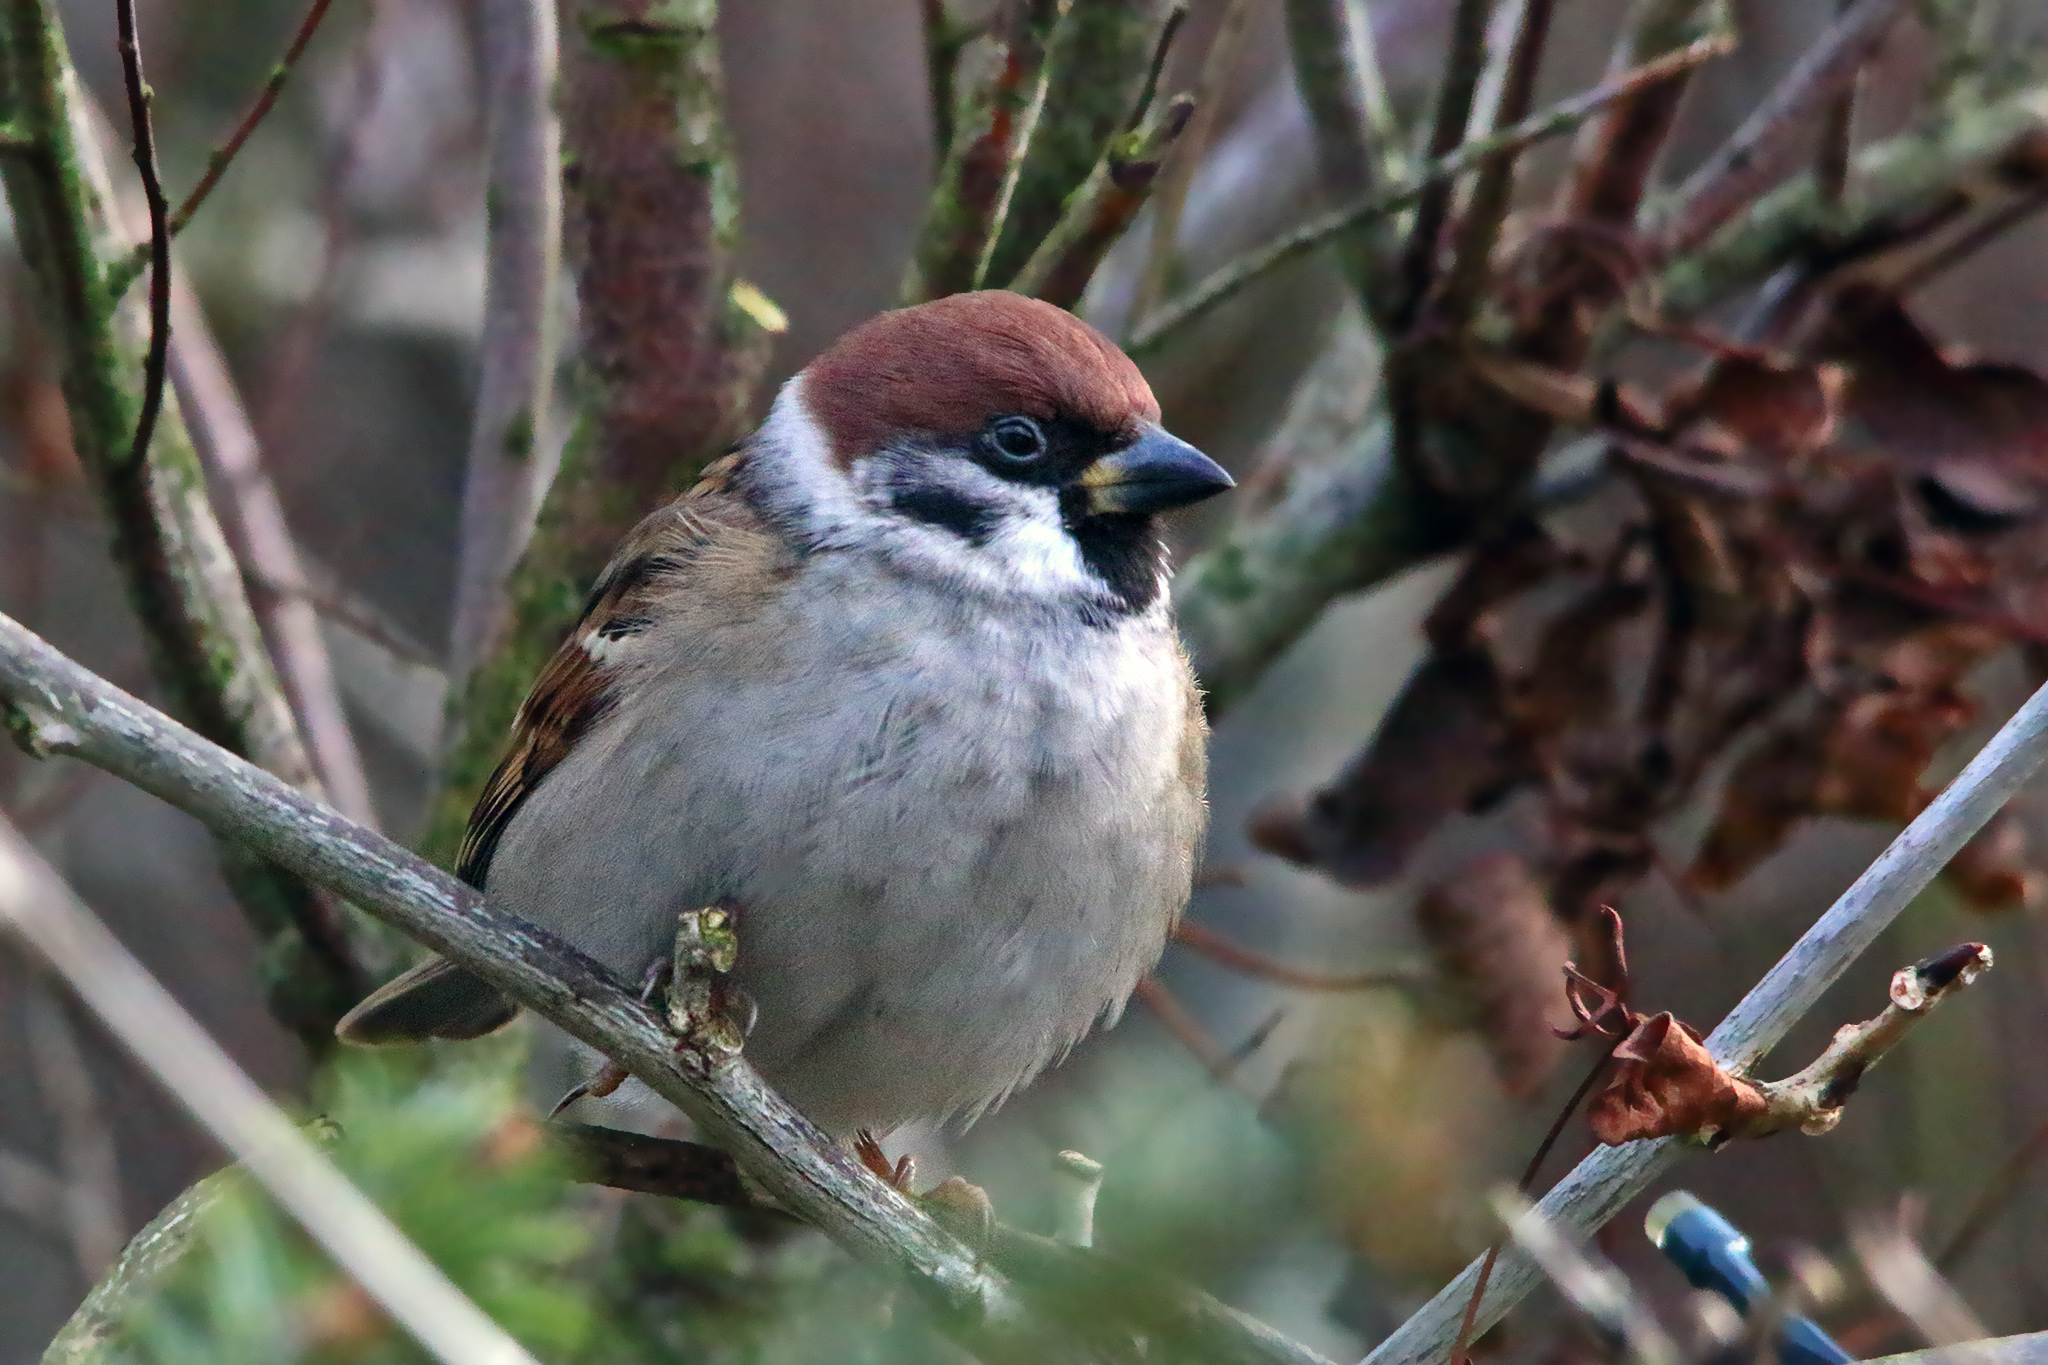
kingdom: Animalia
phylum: Chordata
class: Aves
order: Passeriformes
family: Passeridae
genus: Passer
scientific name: Passer montanus
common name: Eurasian tree sparrow
